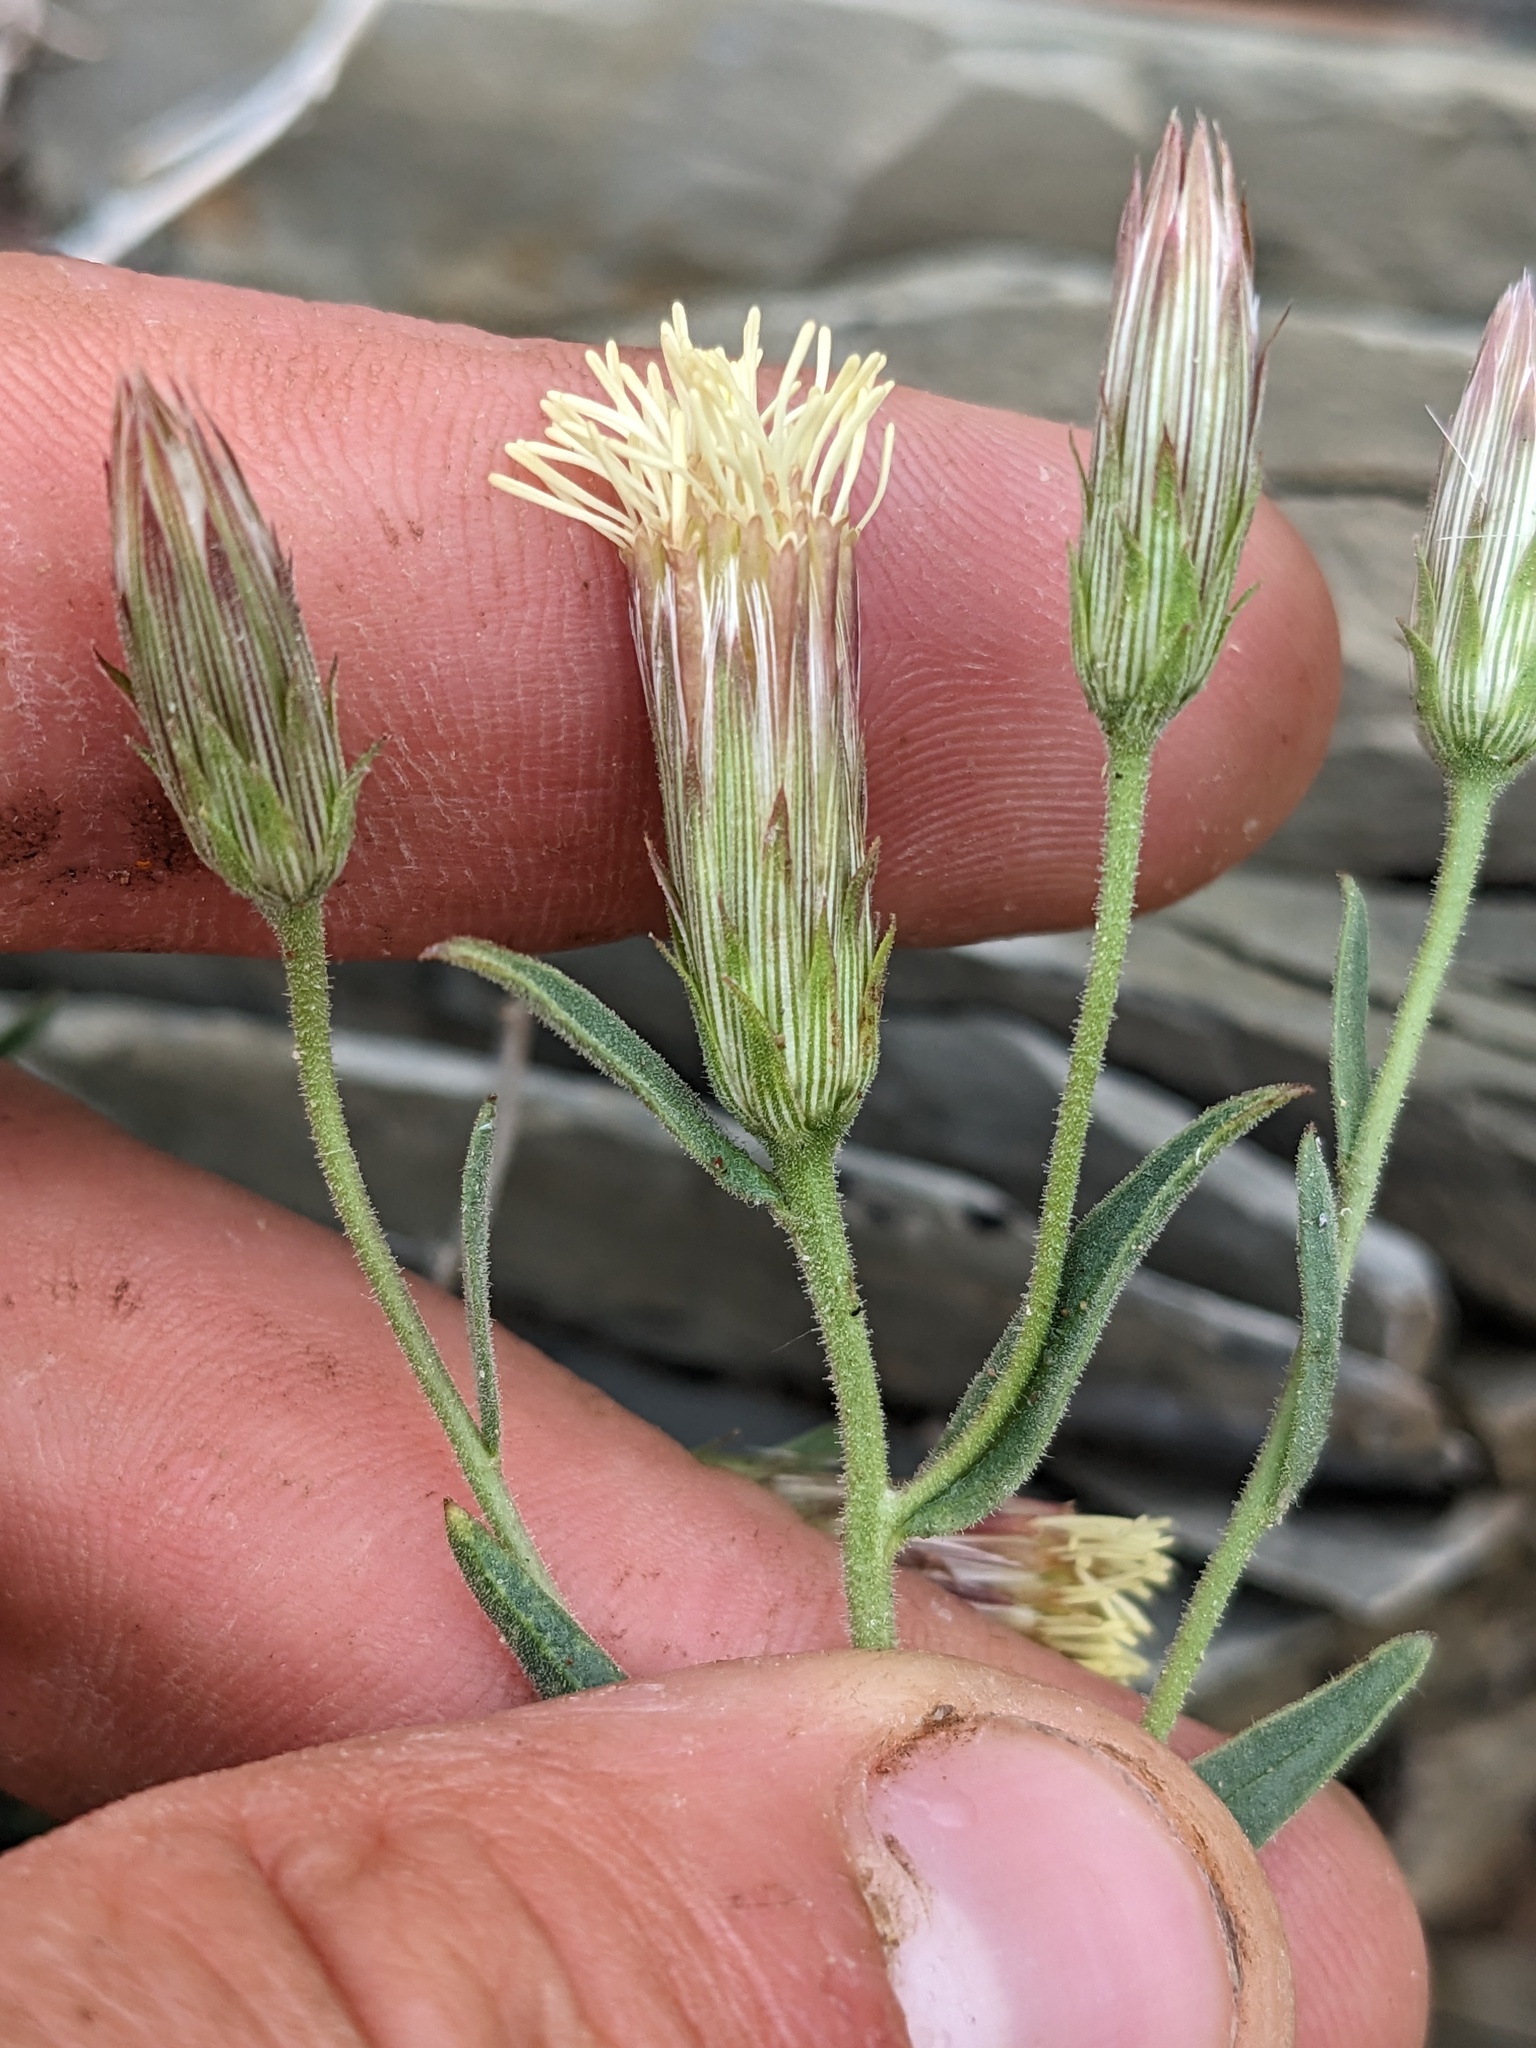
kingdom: Plantae
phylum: Tracheophyta
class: Magnoliopsida
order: Asterales
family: Asteraceae
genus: Brickellia
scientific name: Brickellia oblongifolia
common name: Mojave brickellbush
